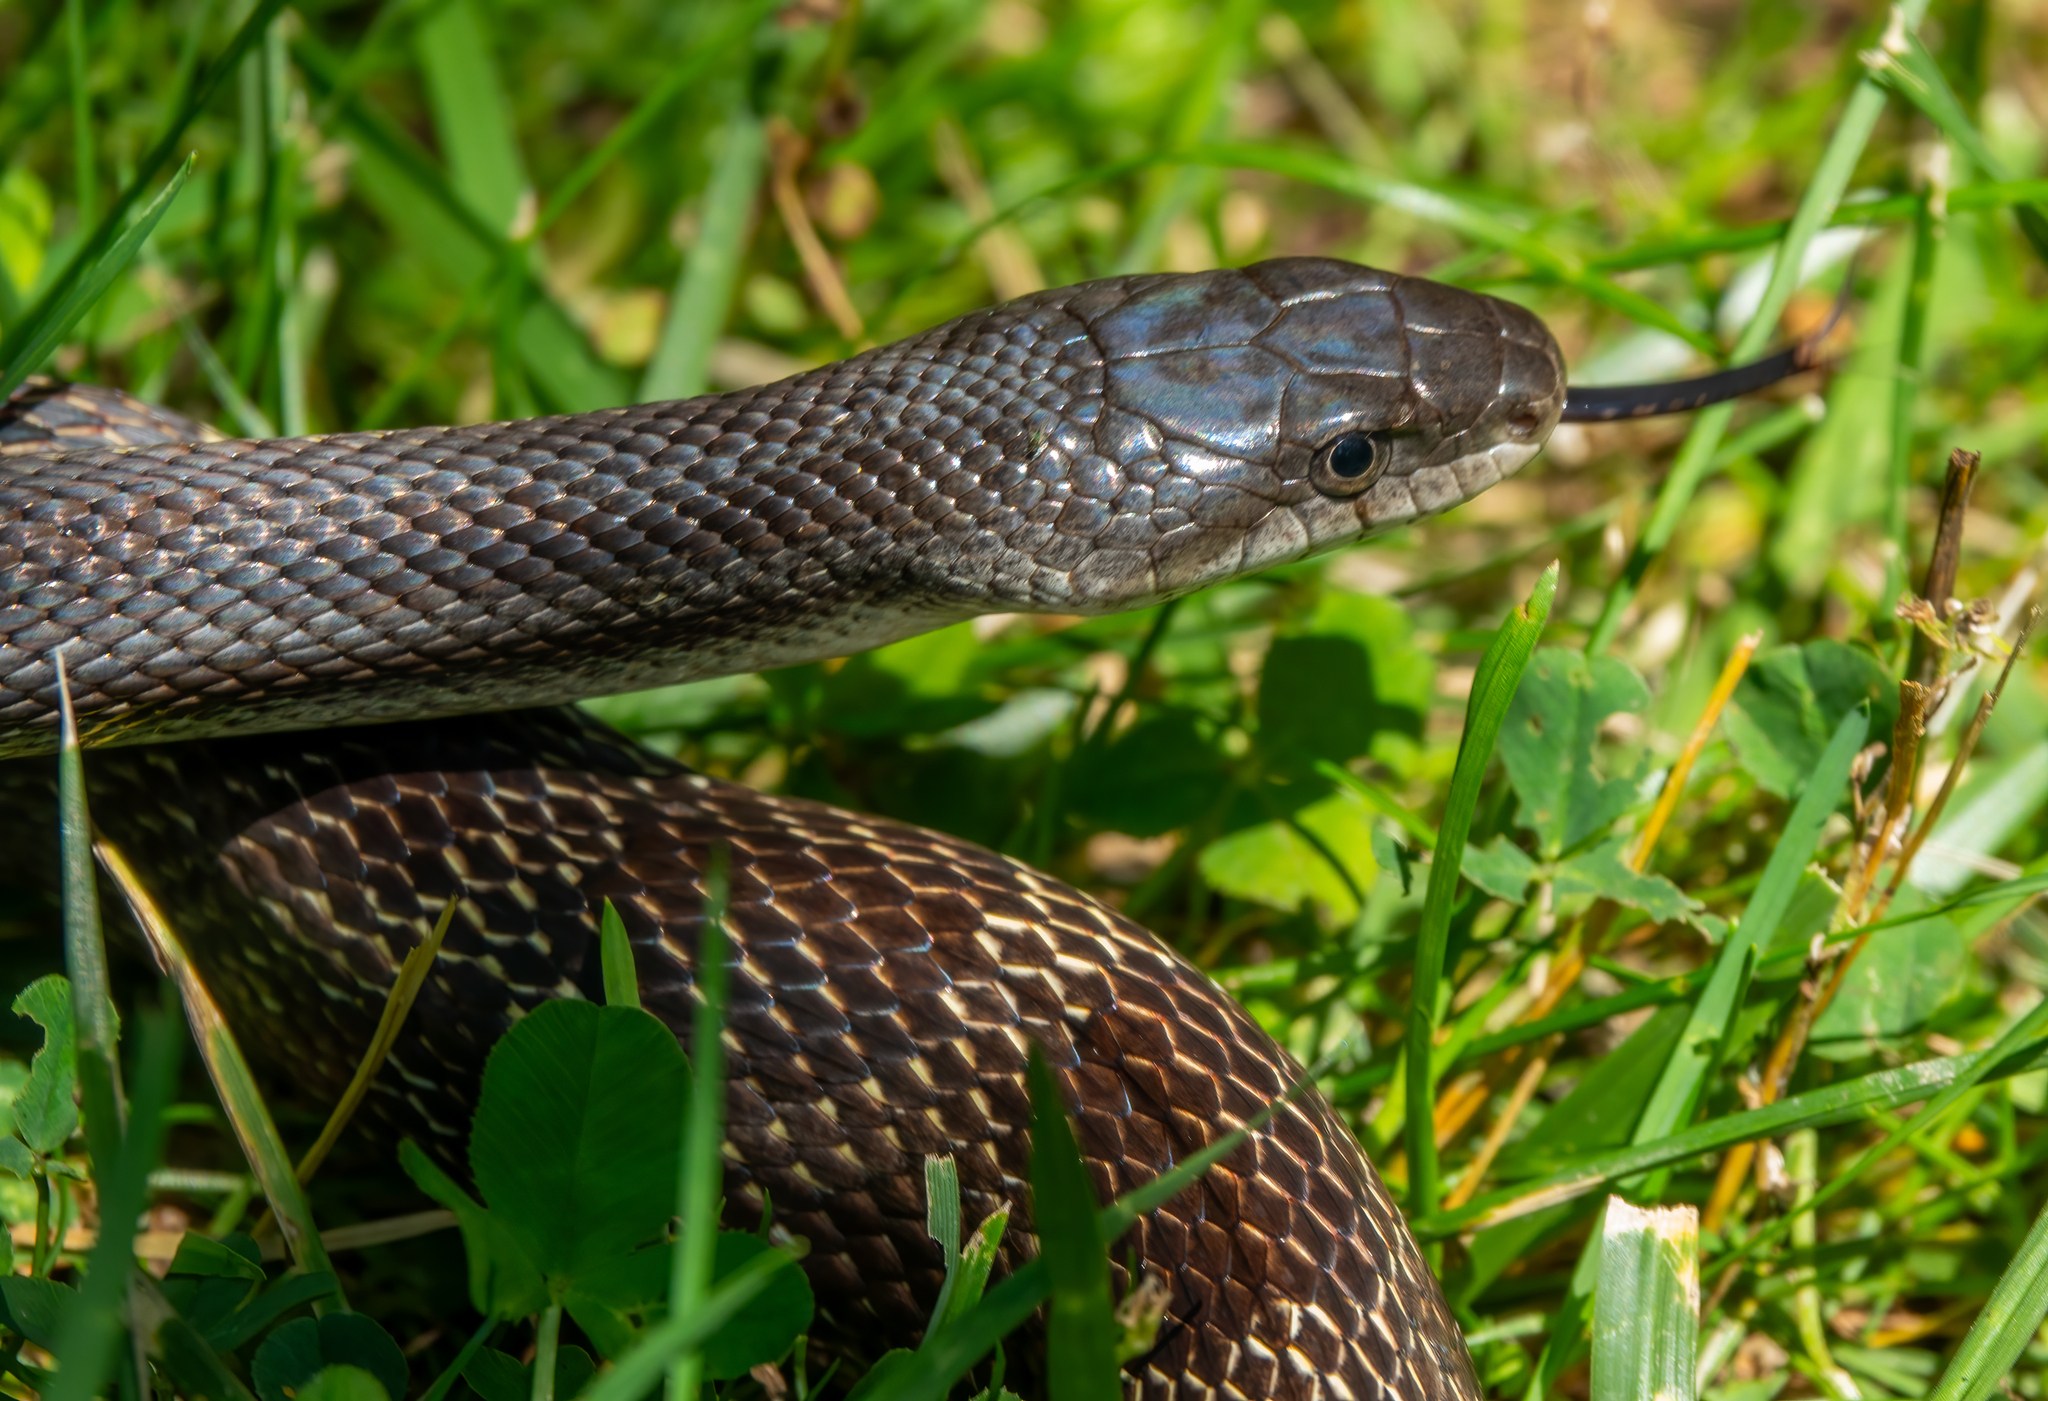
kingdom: Animalia
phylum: Chordata
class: Squamata
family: Colubridae
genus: Pantherophis
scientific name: Pantherophis spiloides
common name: Gray rat snake
